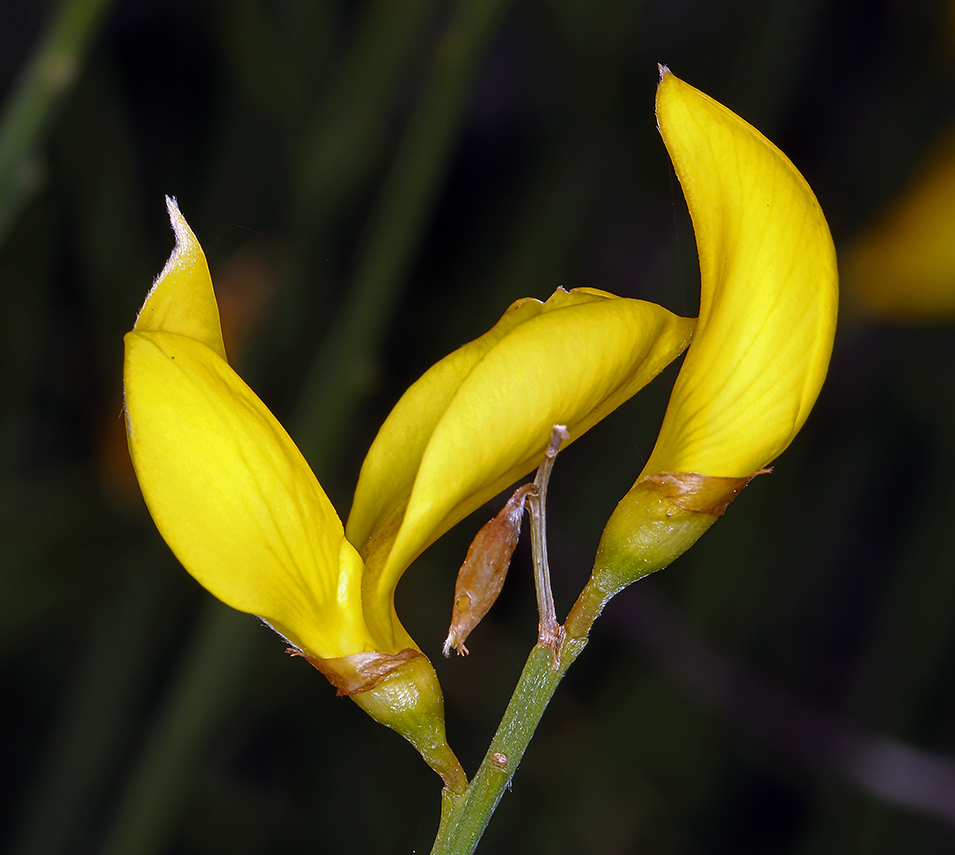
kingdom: Plantae
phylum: Tracheophyta
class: Magnoliopsida
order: Fabales
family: Fabaceae
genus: Spartium
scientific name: Spartium junceum
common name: Spanish broom
